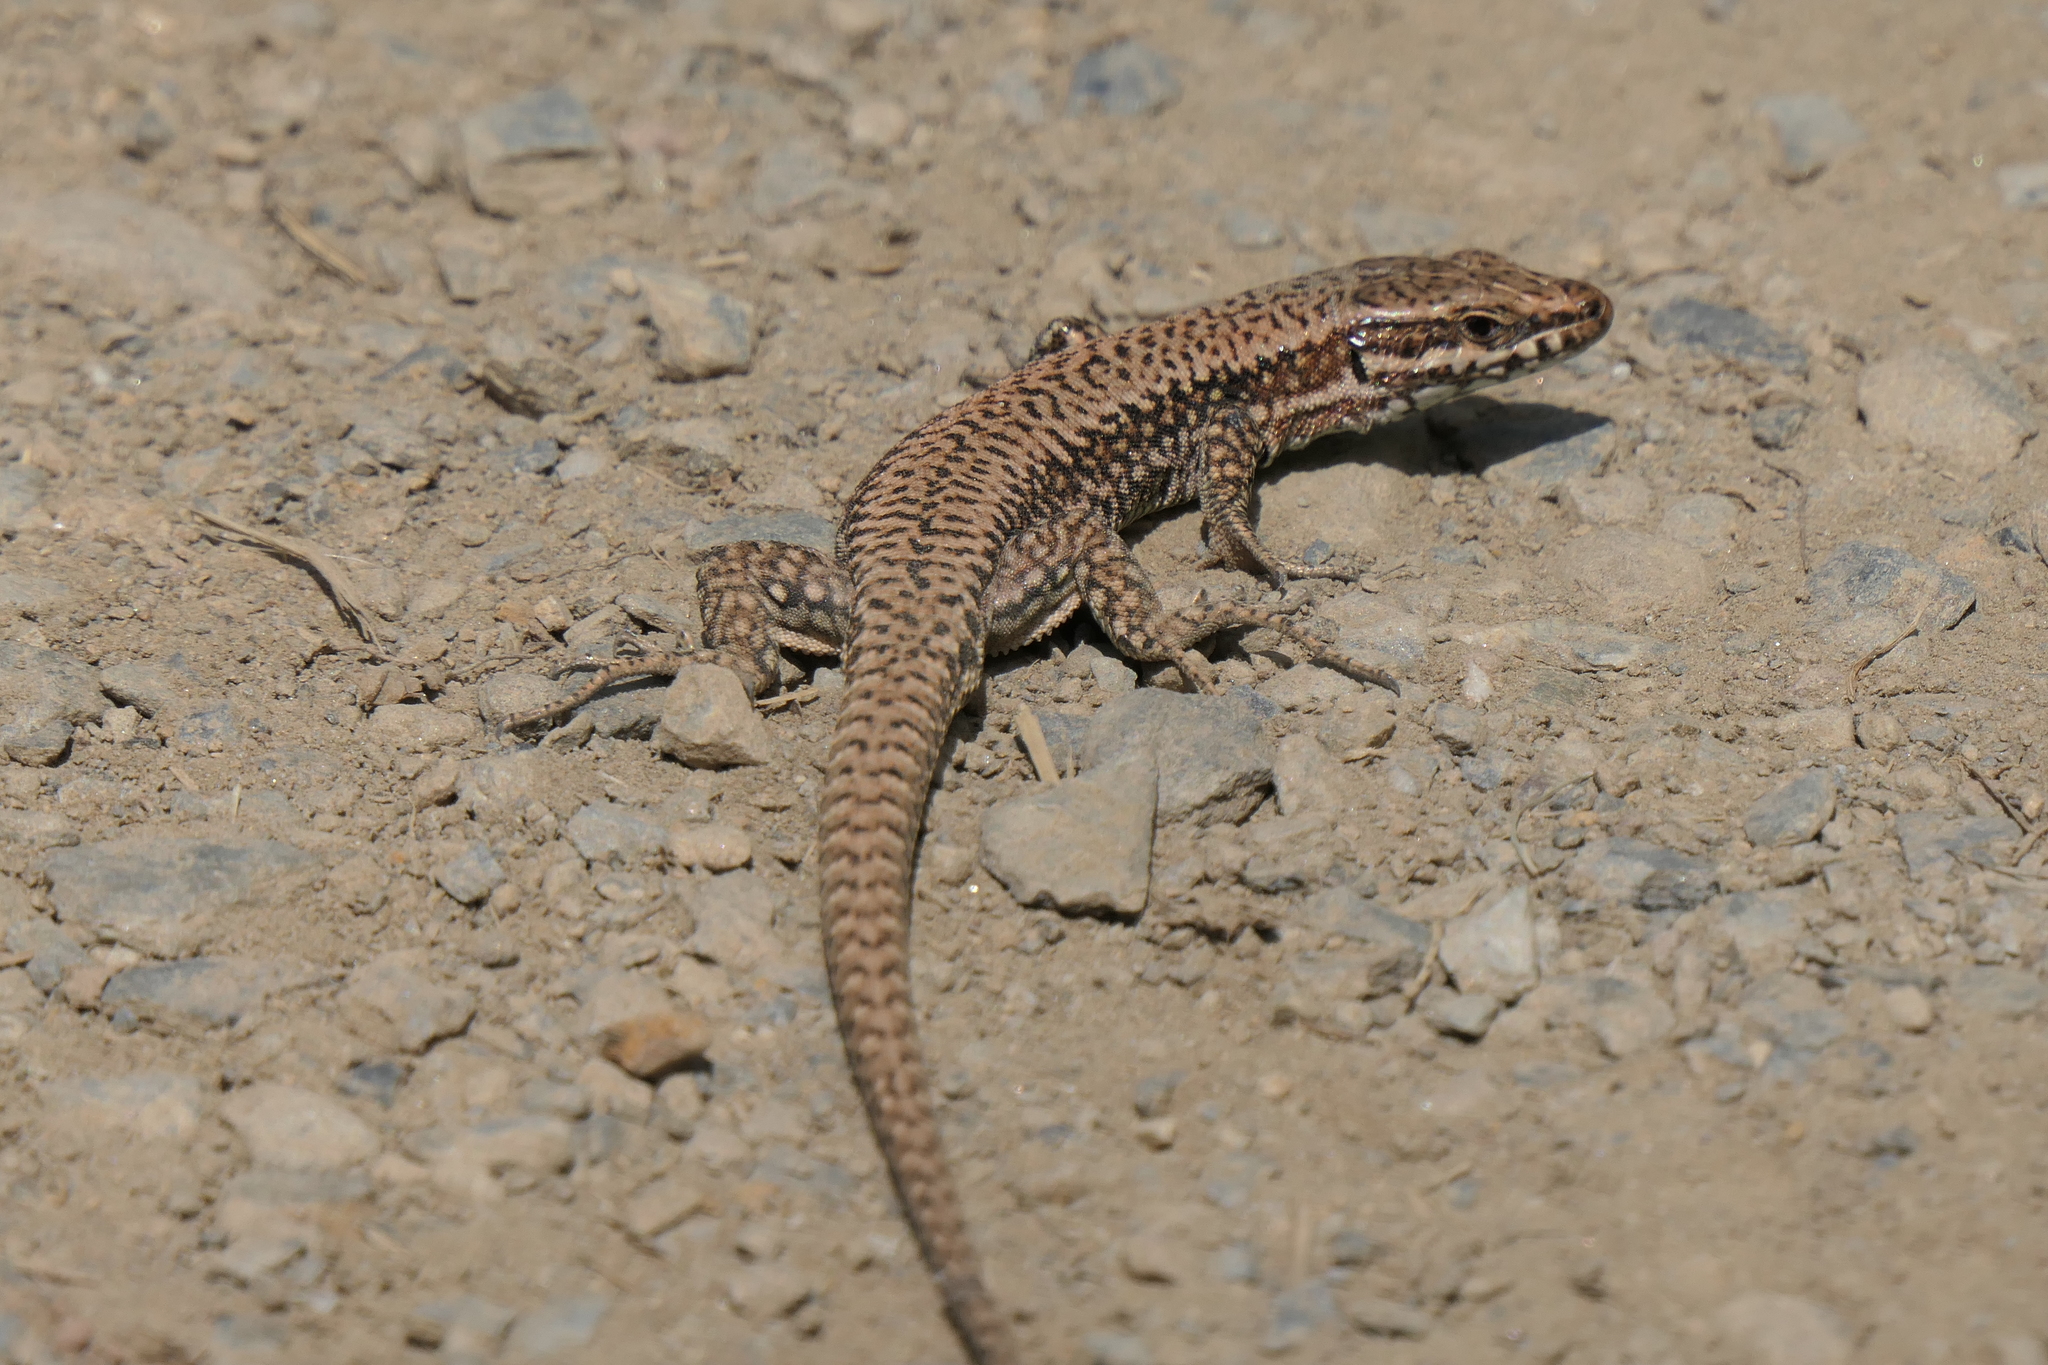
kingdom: Animalia
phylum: Chordata
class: Squamata
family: Lacertidae
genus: Podarcis
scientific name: Podarcis muralis
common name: Common wall lizard
